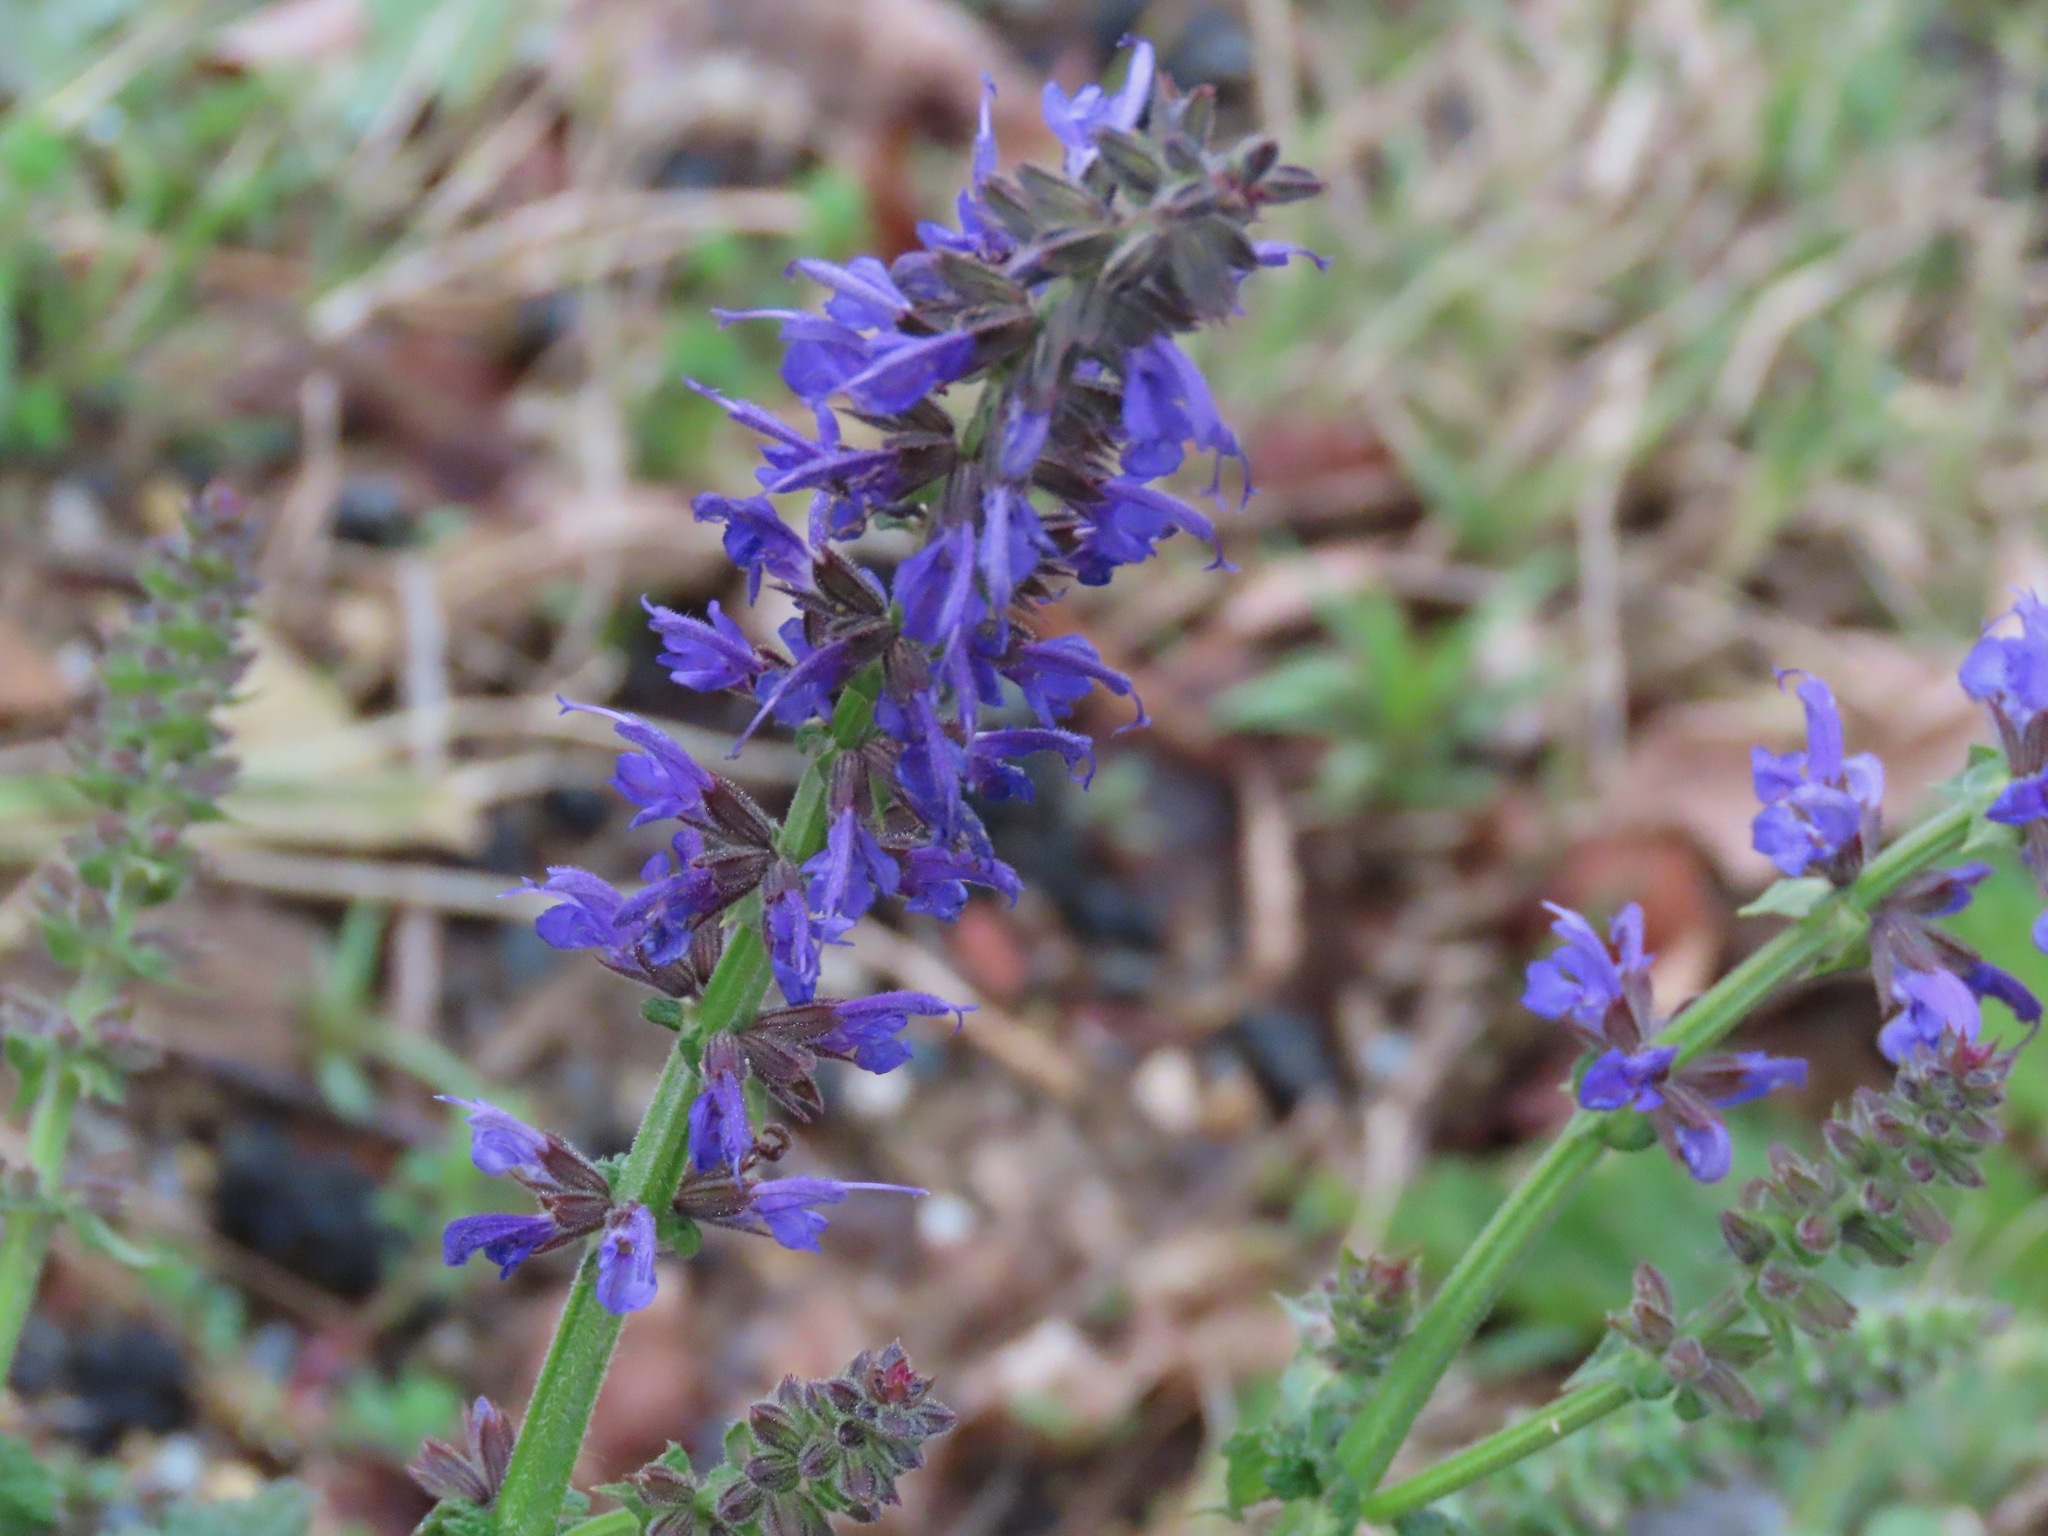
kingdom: Plantae
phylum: Tracheophyta
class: Magnoliopsida
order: Lamiales
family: Lamiaceae
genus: Salvia
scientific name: Salvia pratensis
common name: Meadow sage
